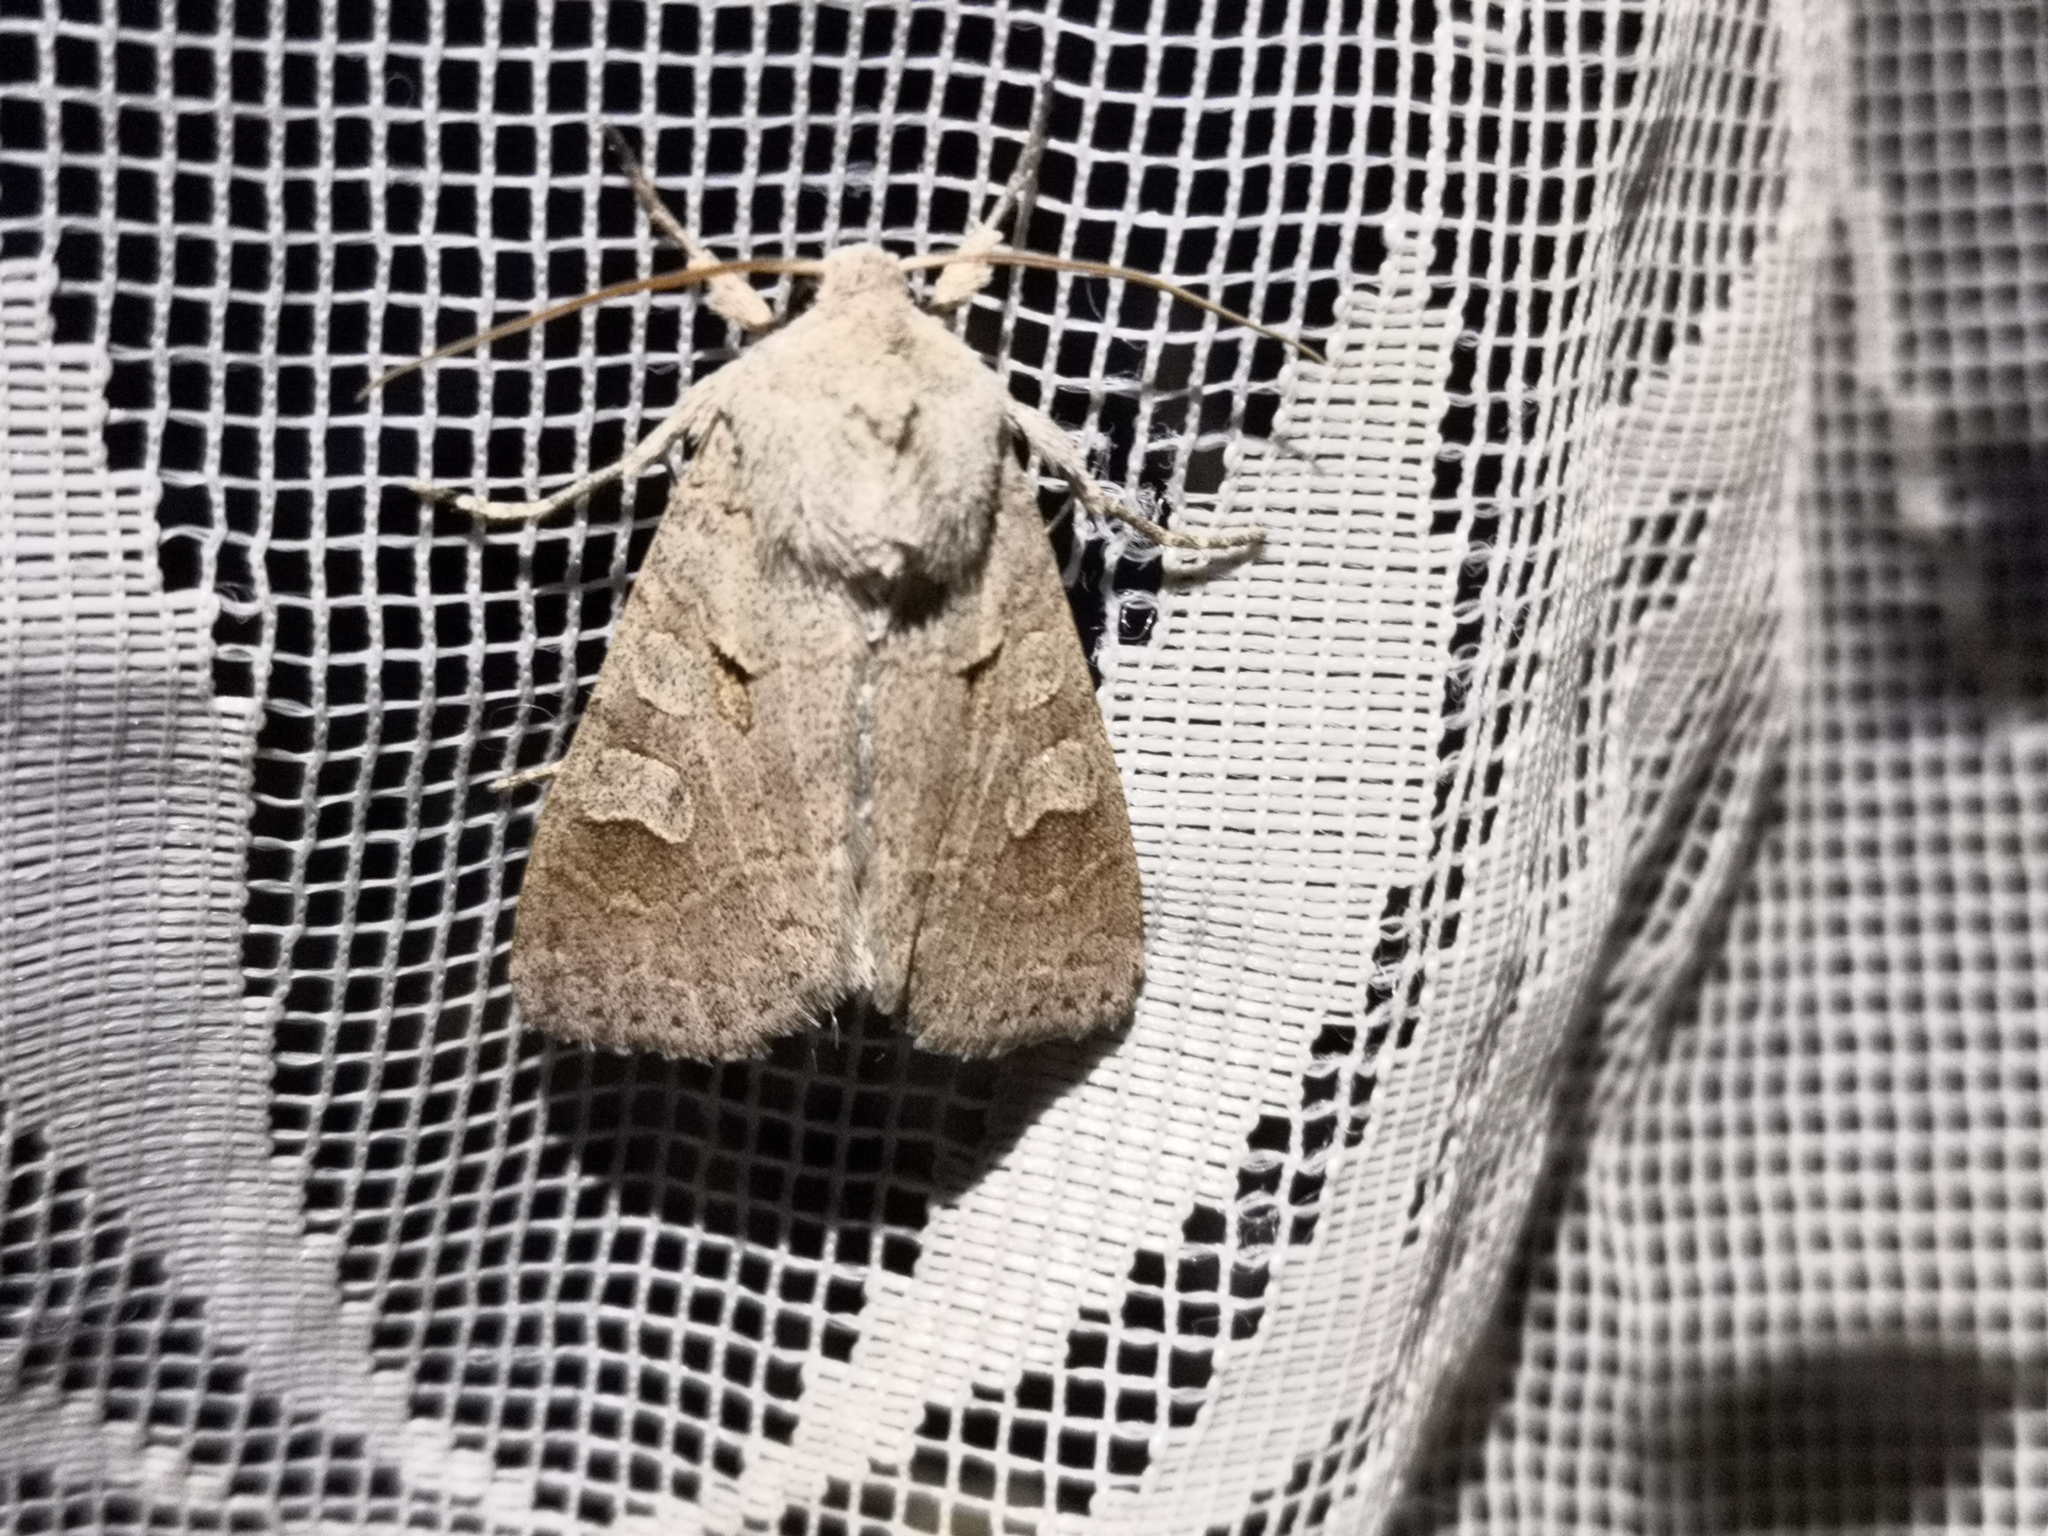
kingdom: Animalia
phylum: Arthropoda
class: Insecta
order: Lepidoptera
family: Noctuidae
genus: Ammoconia
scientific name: Ammoconia caecimacula
